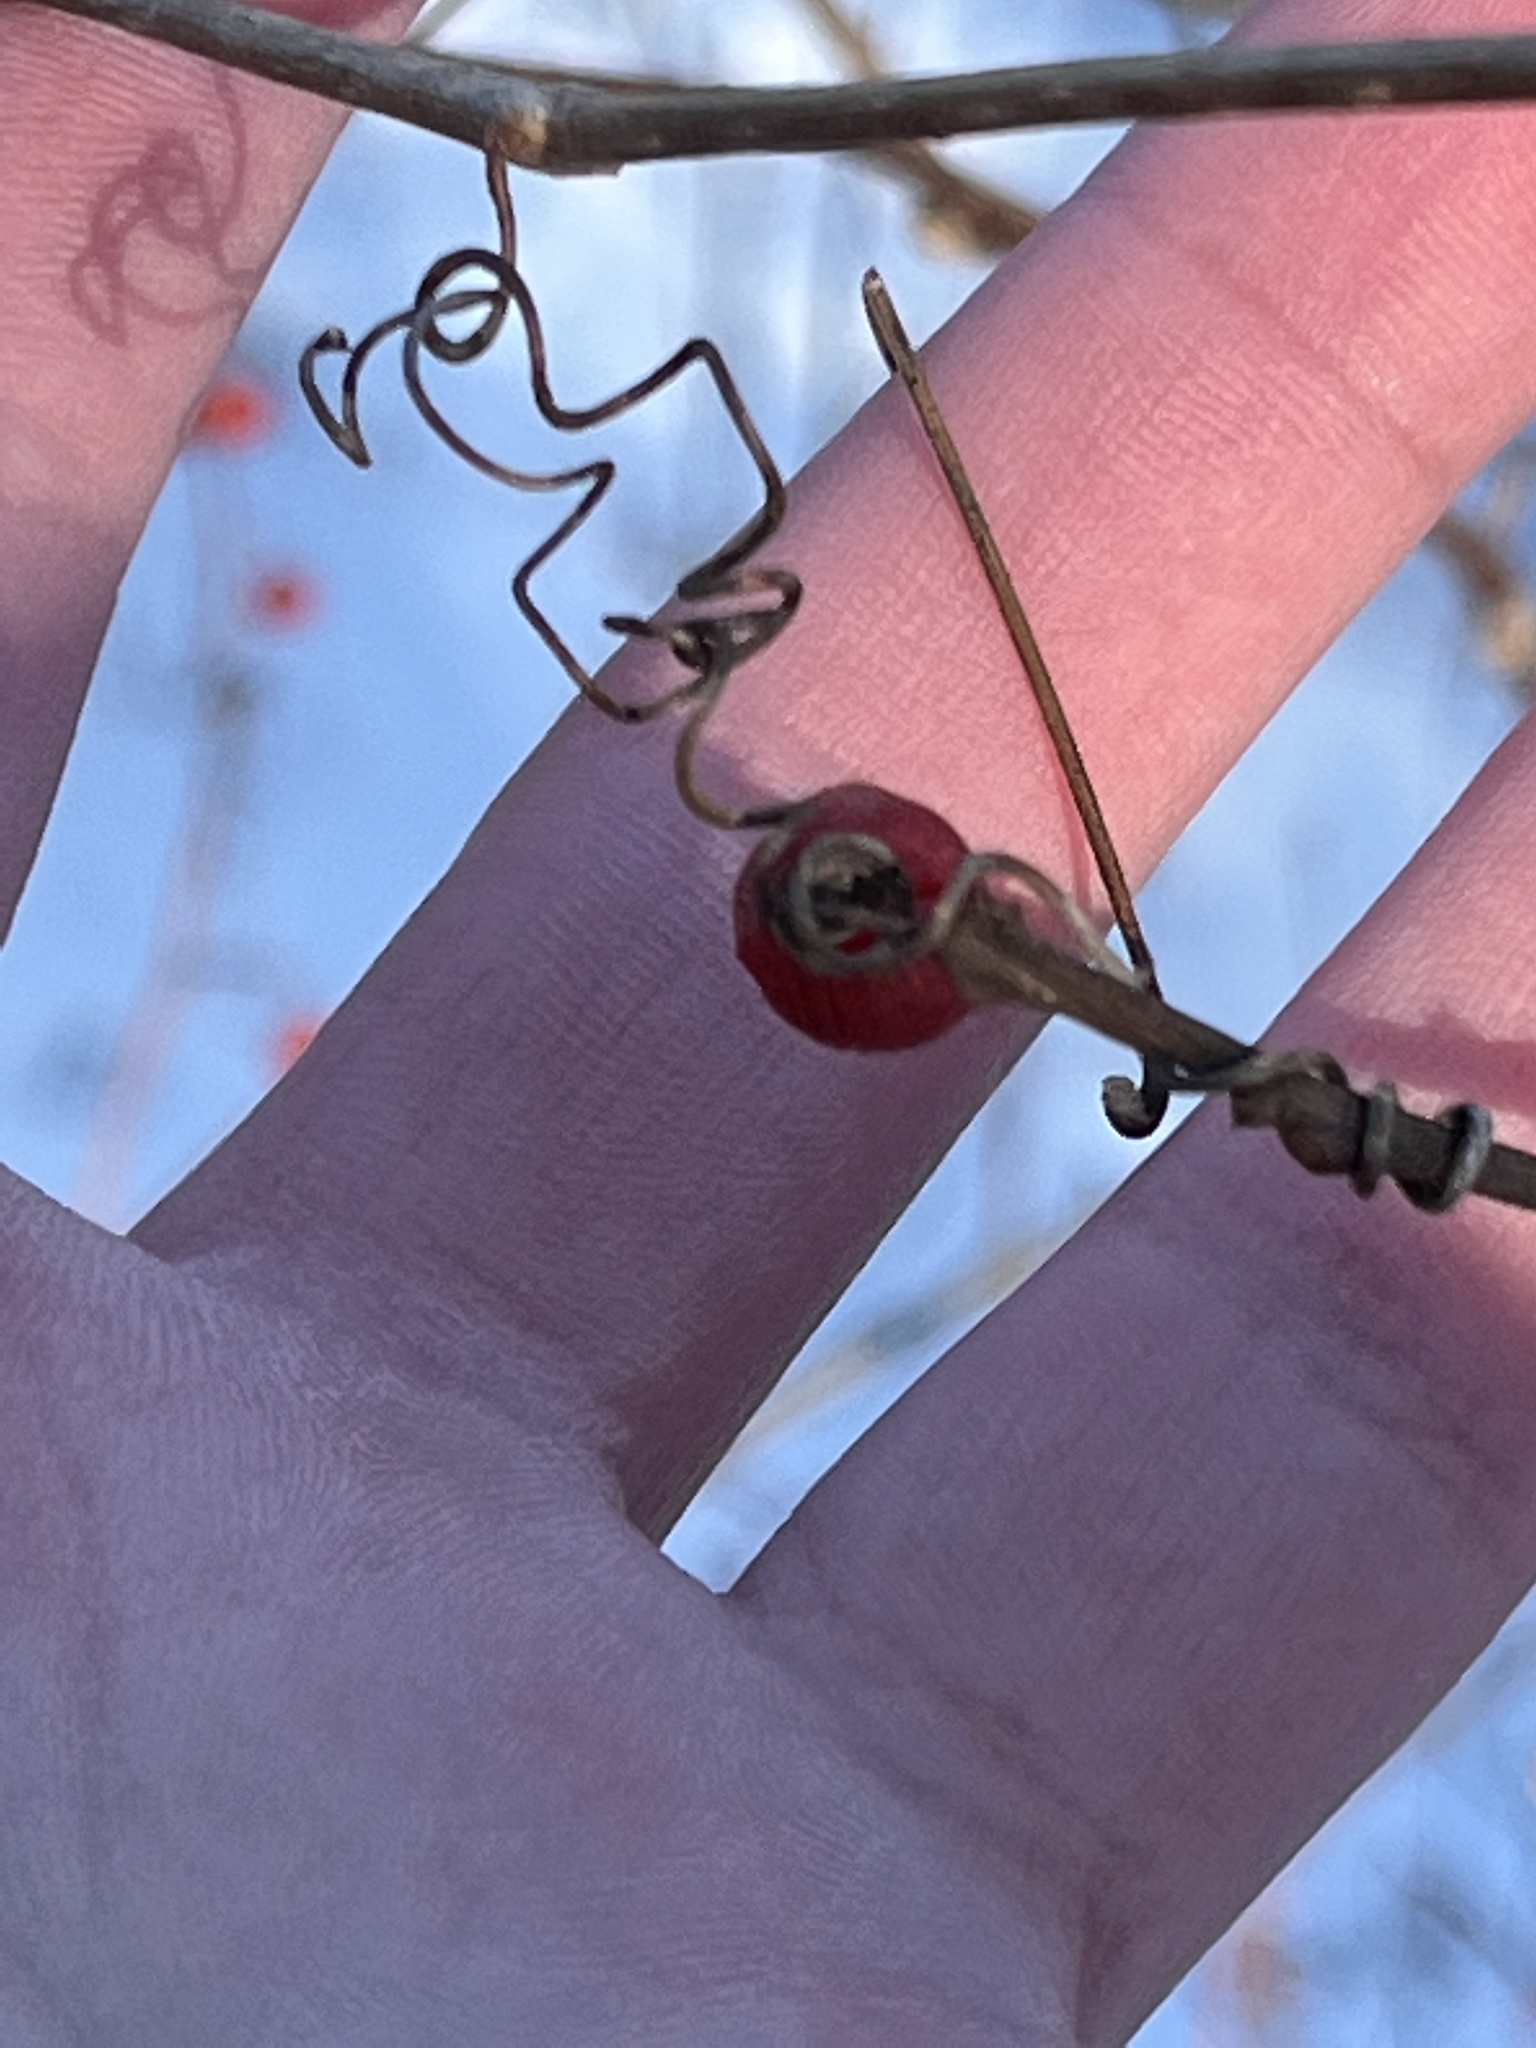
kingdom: Plantae
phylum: Tracheophyta
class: Magnoliopsida
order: Celastrales
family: Celastraceae
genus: Celastrus
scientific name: Celastrus orbiculatus
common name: Oriental bittersweet
